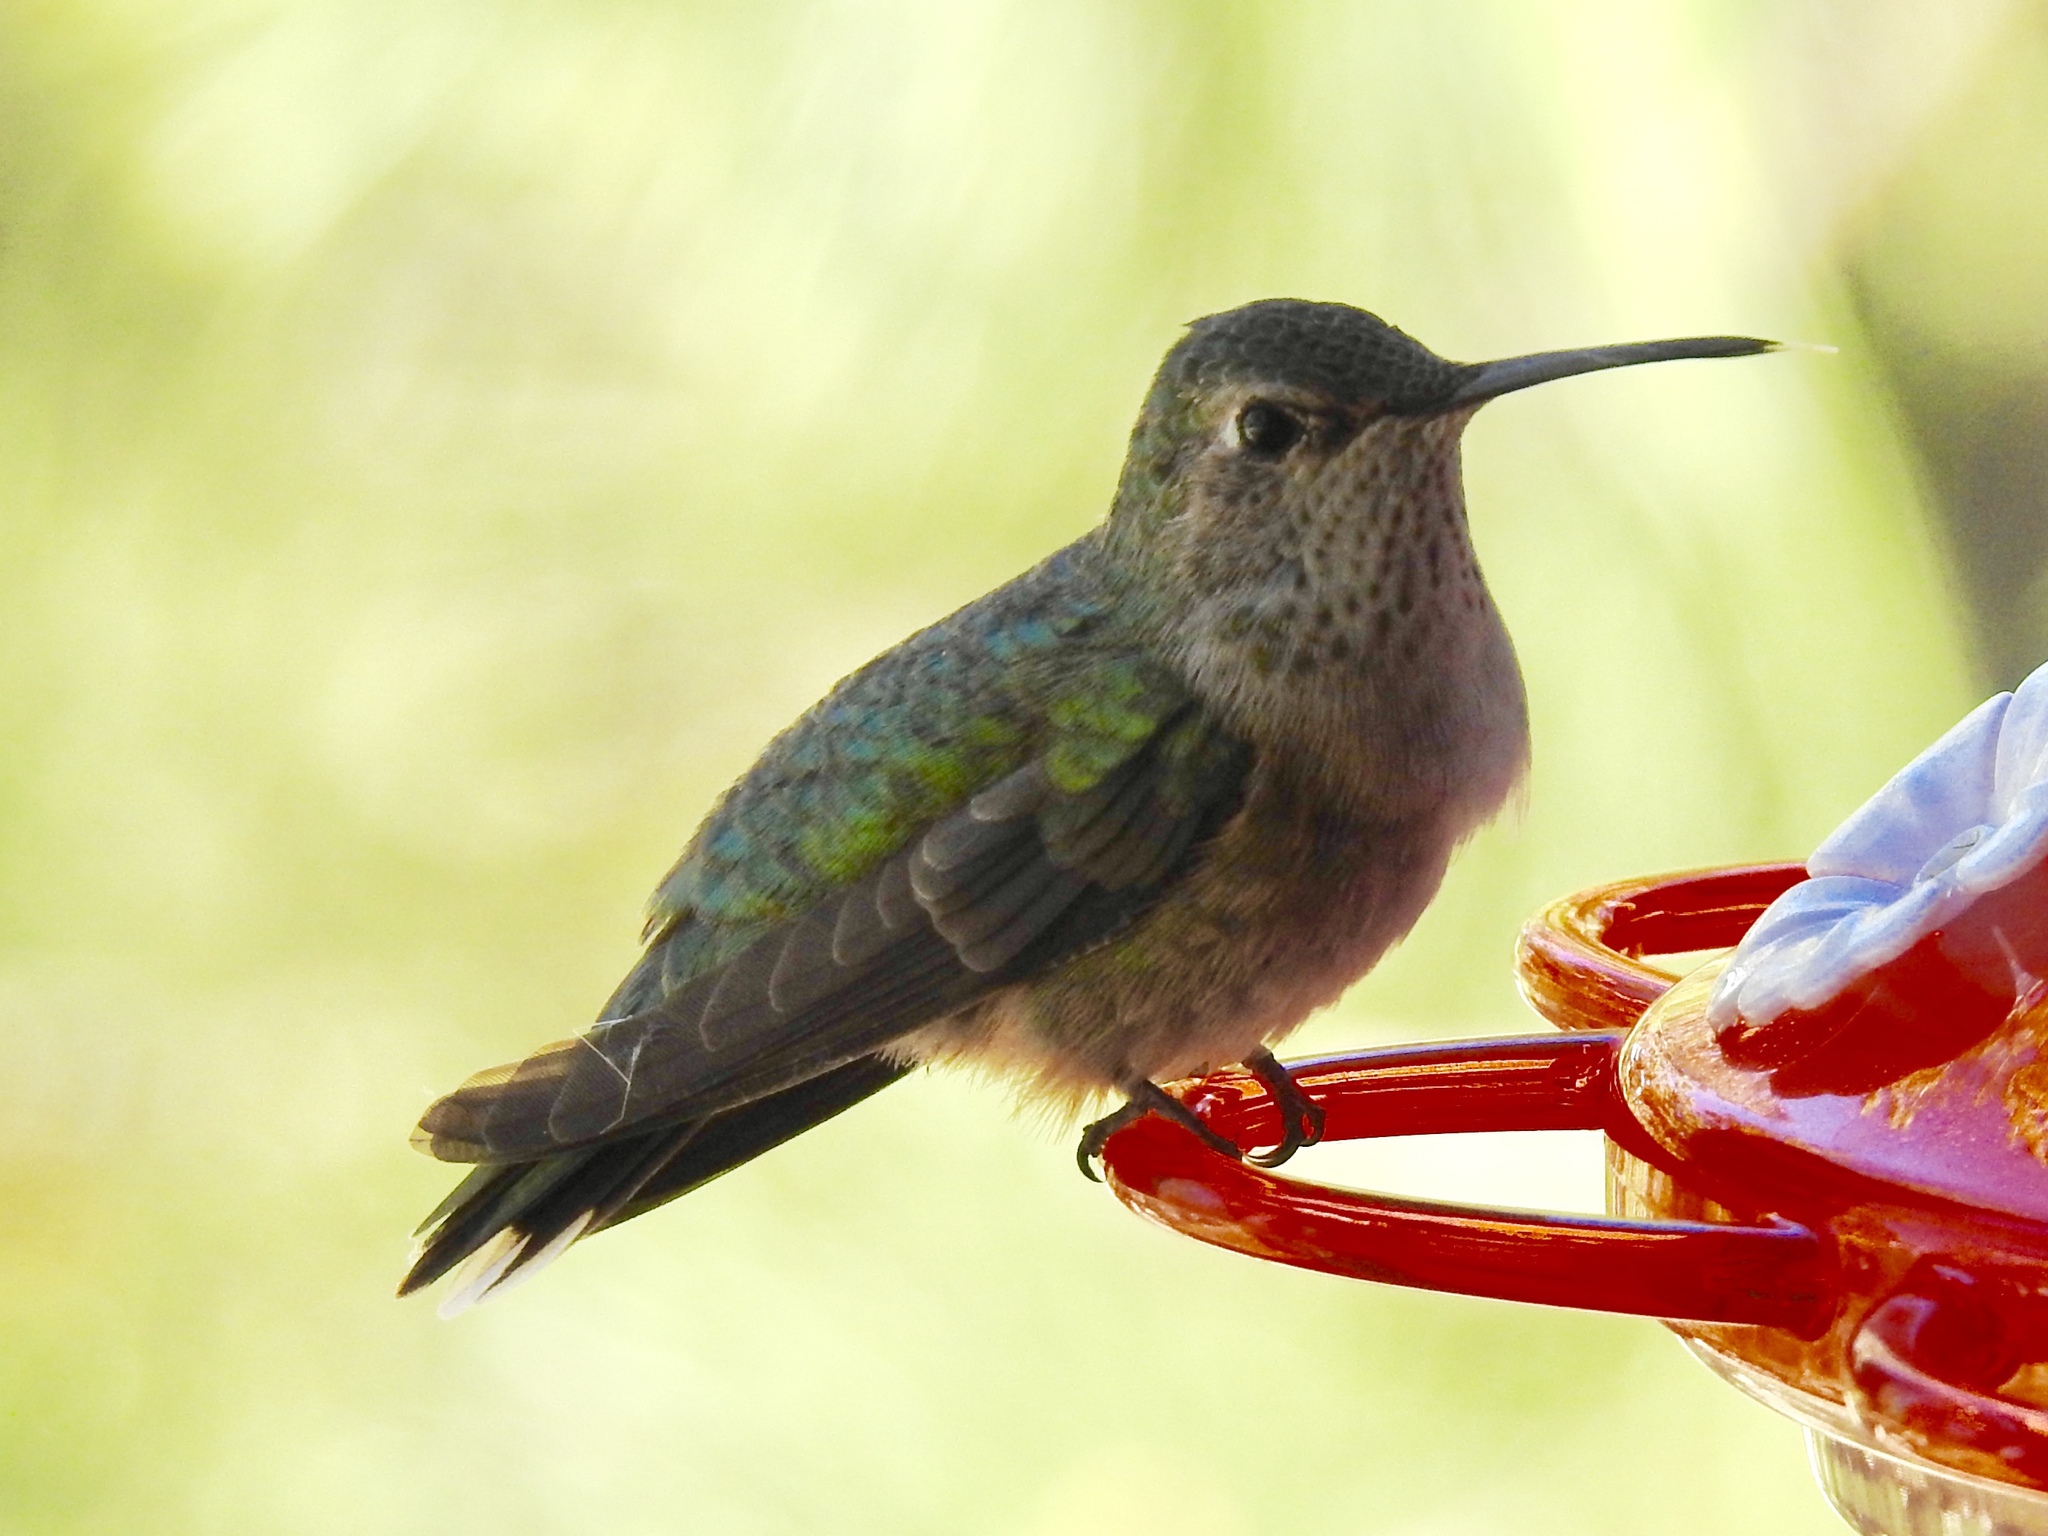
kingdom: Animalia
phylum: Chordata
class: Aves
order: Apodiformes
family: Trochilidae
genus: Selasphorus
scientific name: Selasphorus platycercus
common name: Broad-tailed hummingbird
